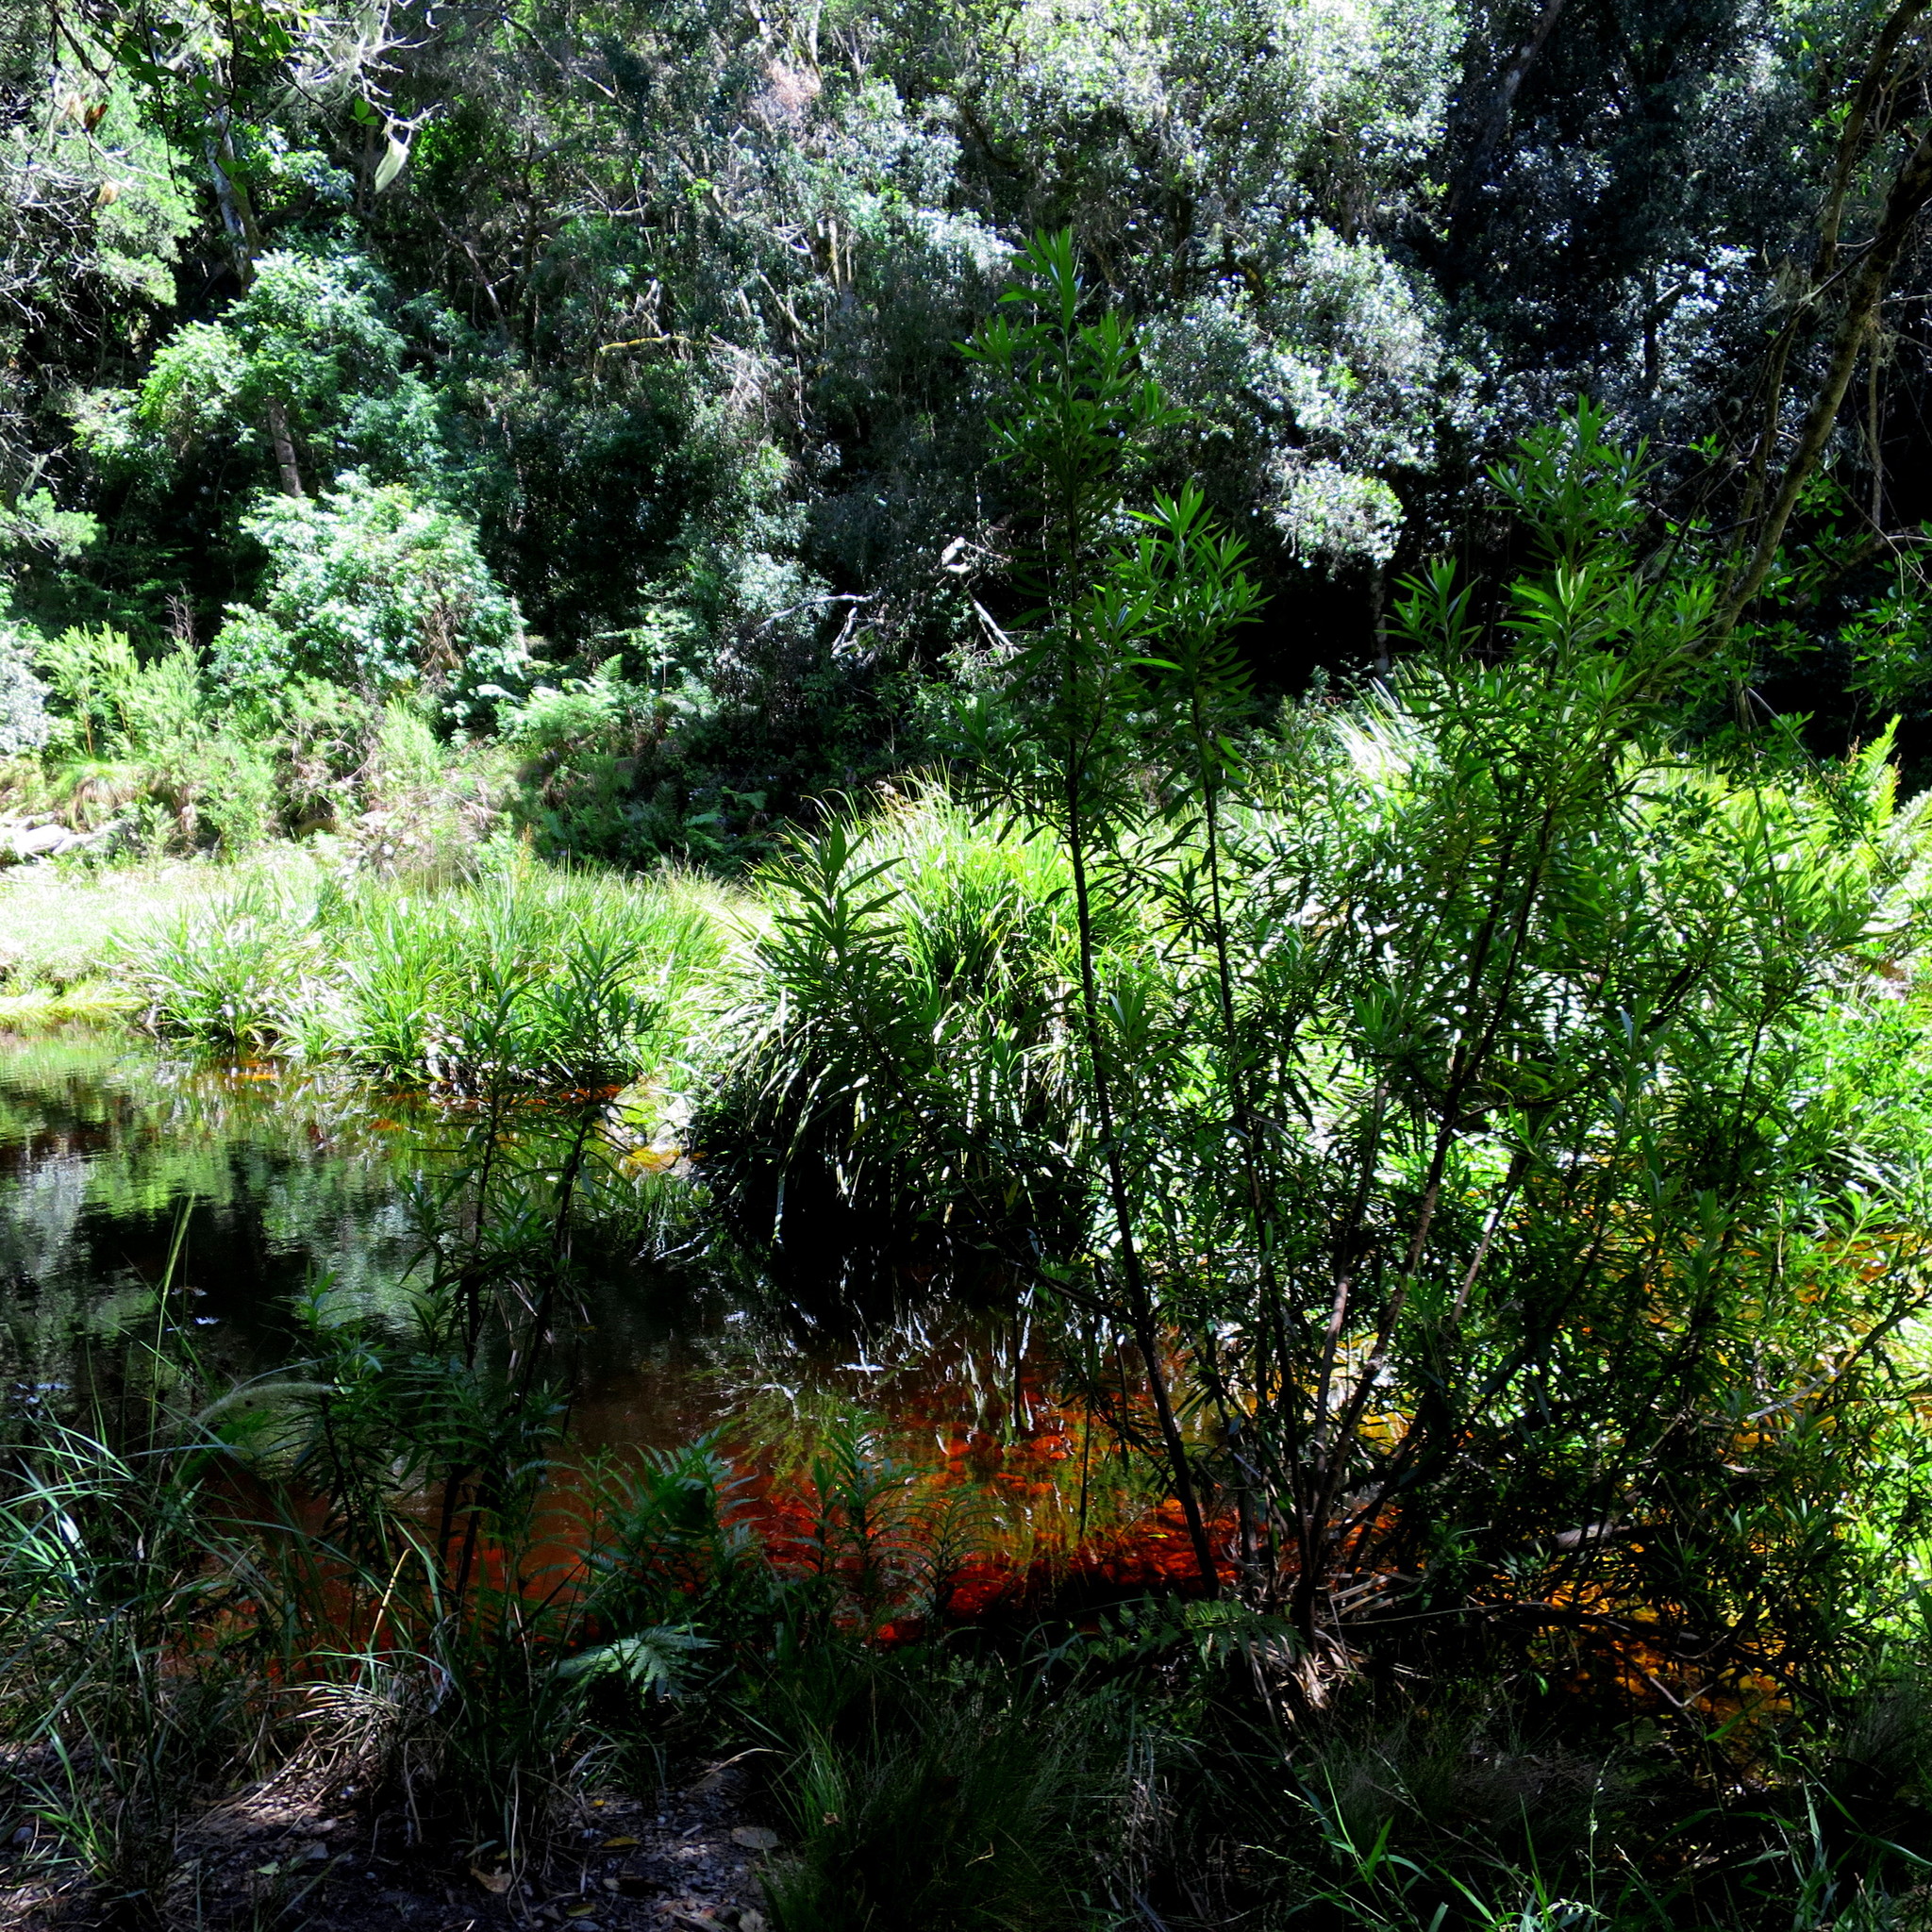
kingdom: Plantae
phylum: Tracheophyta
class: Magnoliopsida
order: Asterales
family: Asteraceae
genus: Brachylaena
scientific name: Brachylaena neriifolia
